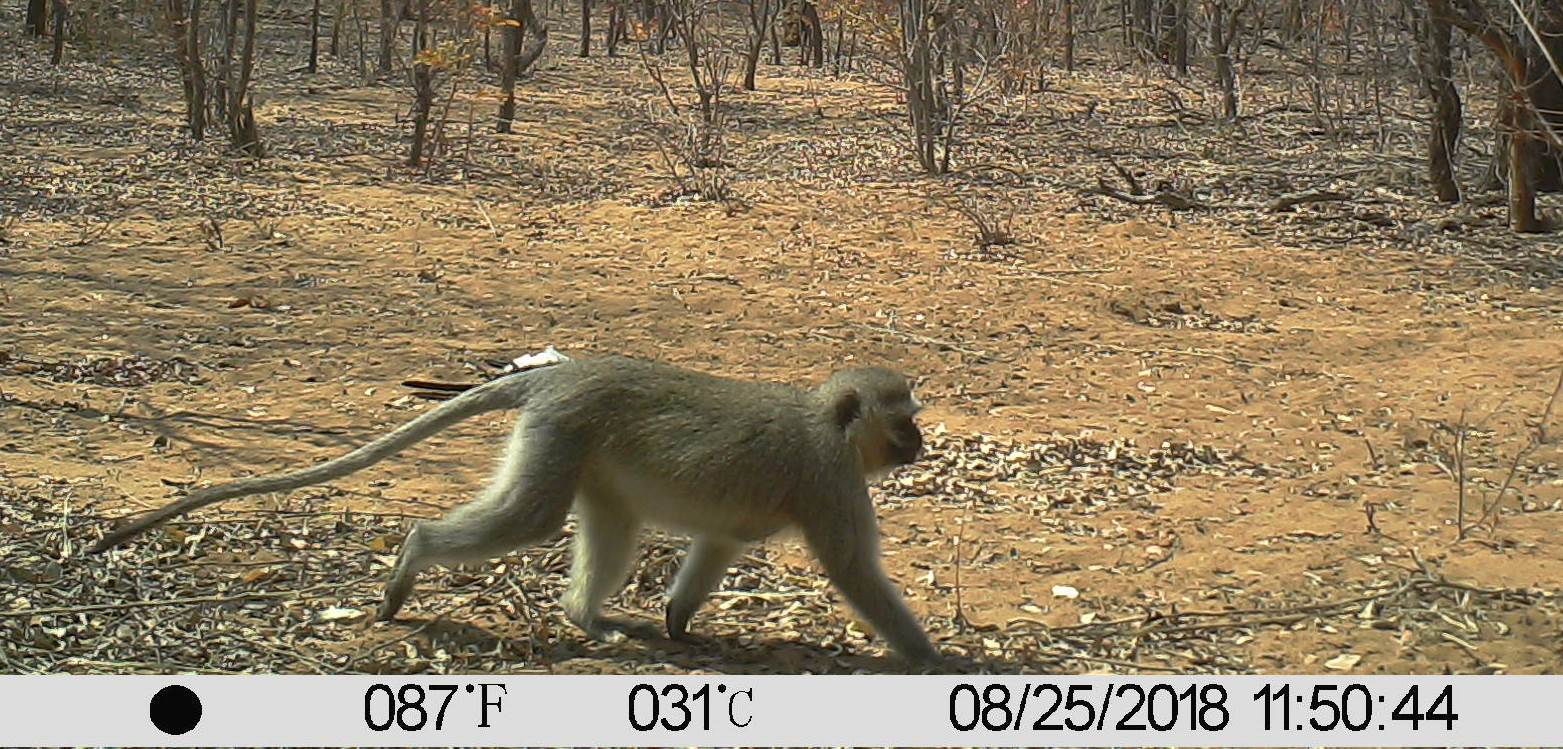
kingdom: Animalia
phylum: Chordata
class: Aves
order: Bucerotiformes
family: Bucerotidae
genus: Tockus
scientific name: Tockus leucomelas
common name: Southern yellow-billed hornbill
